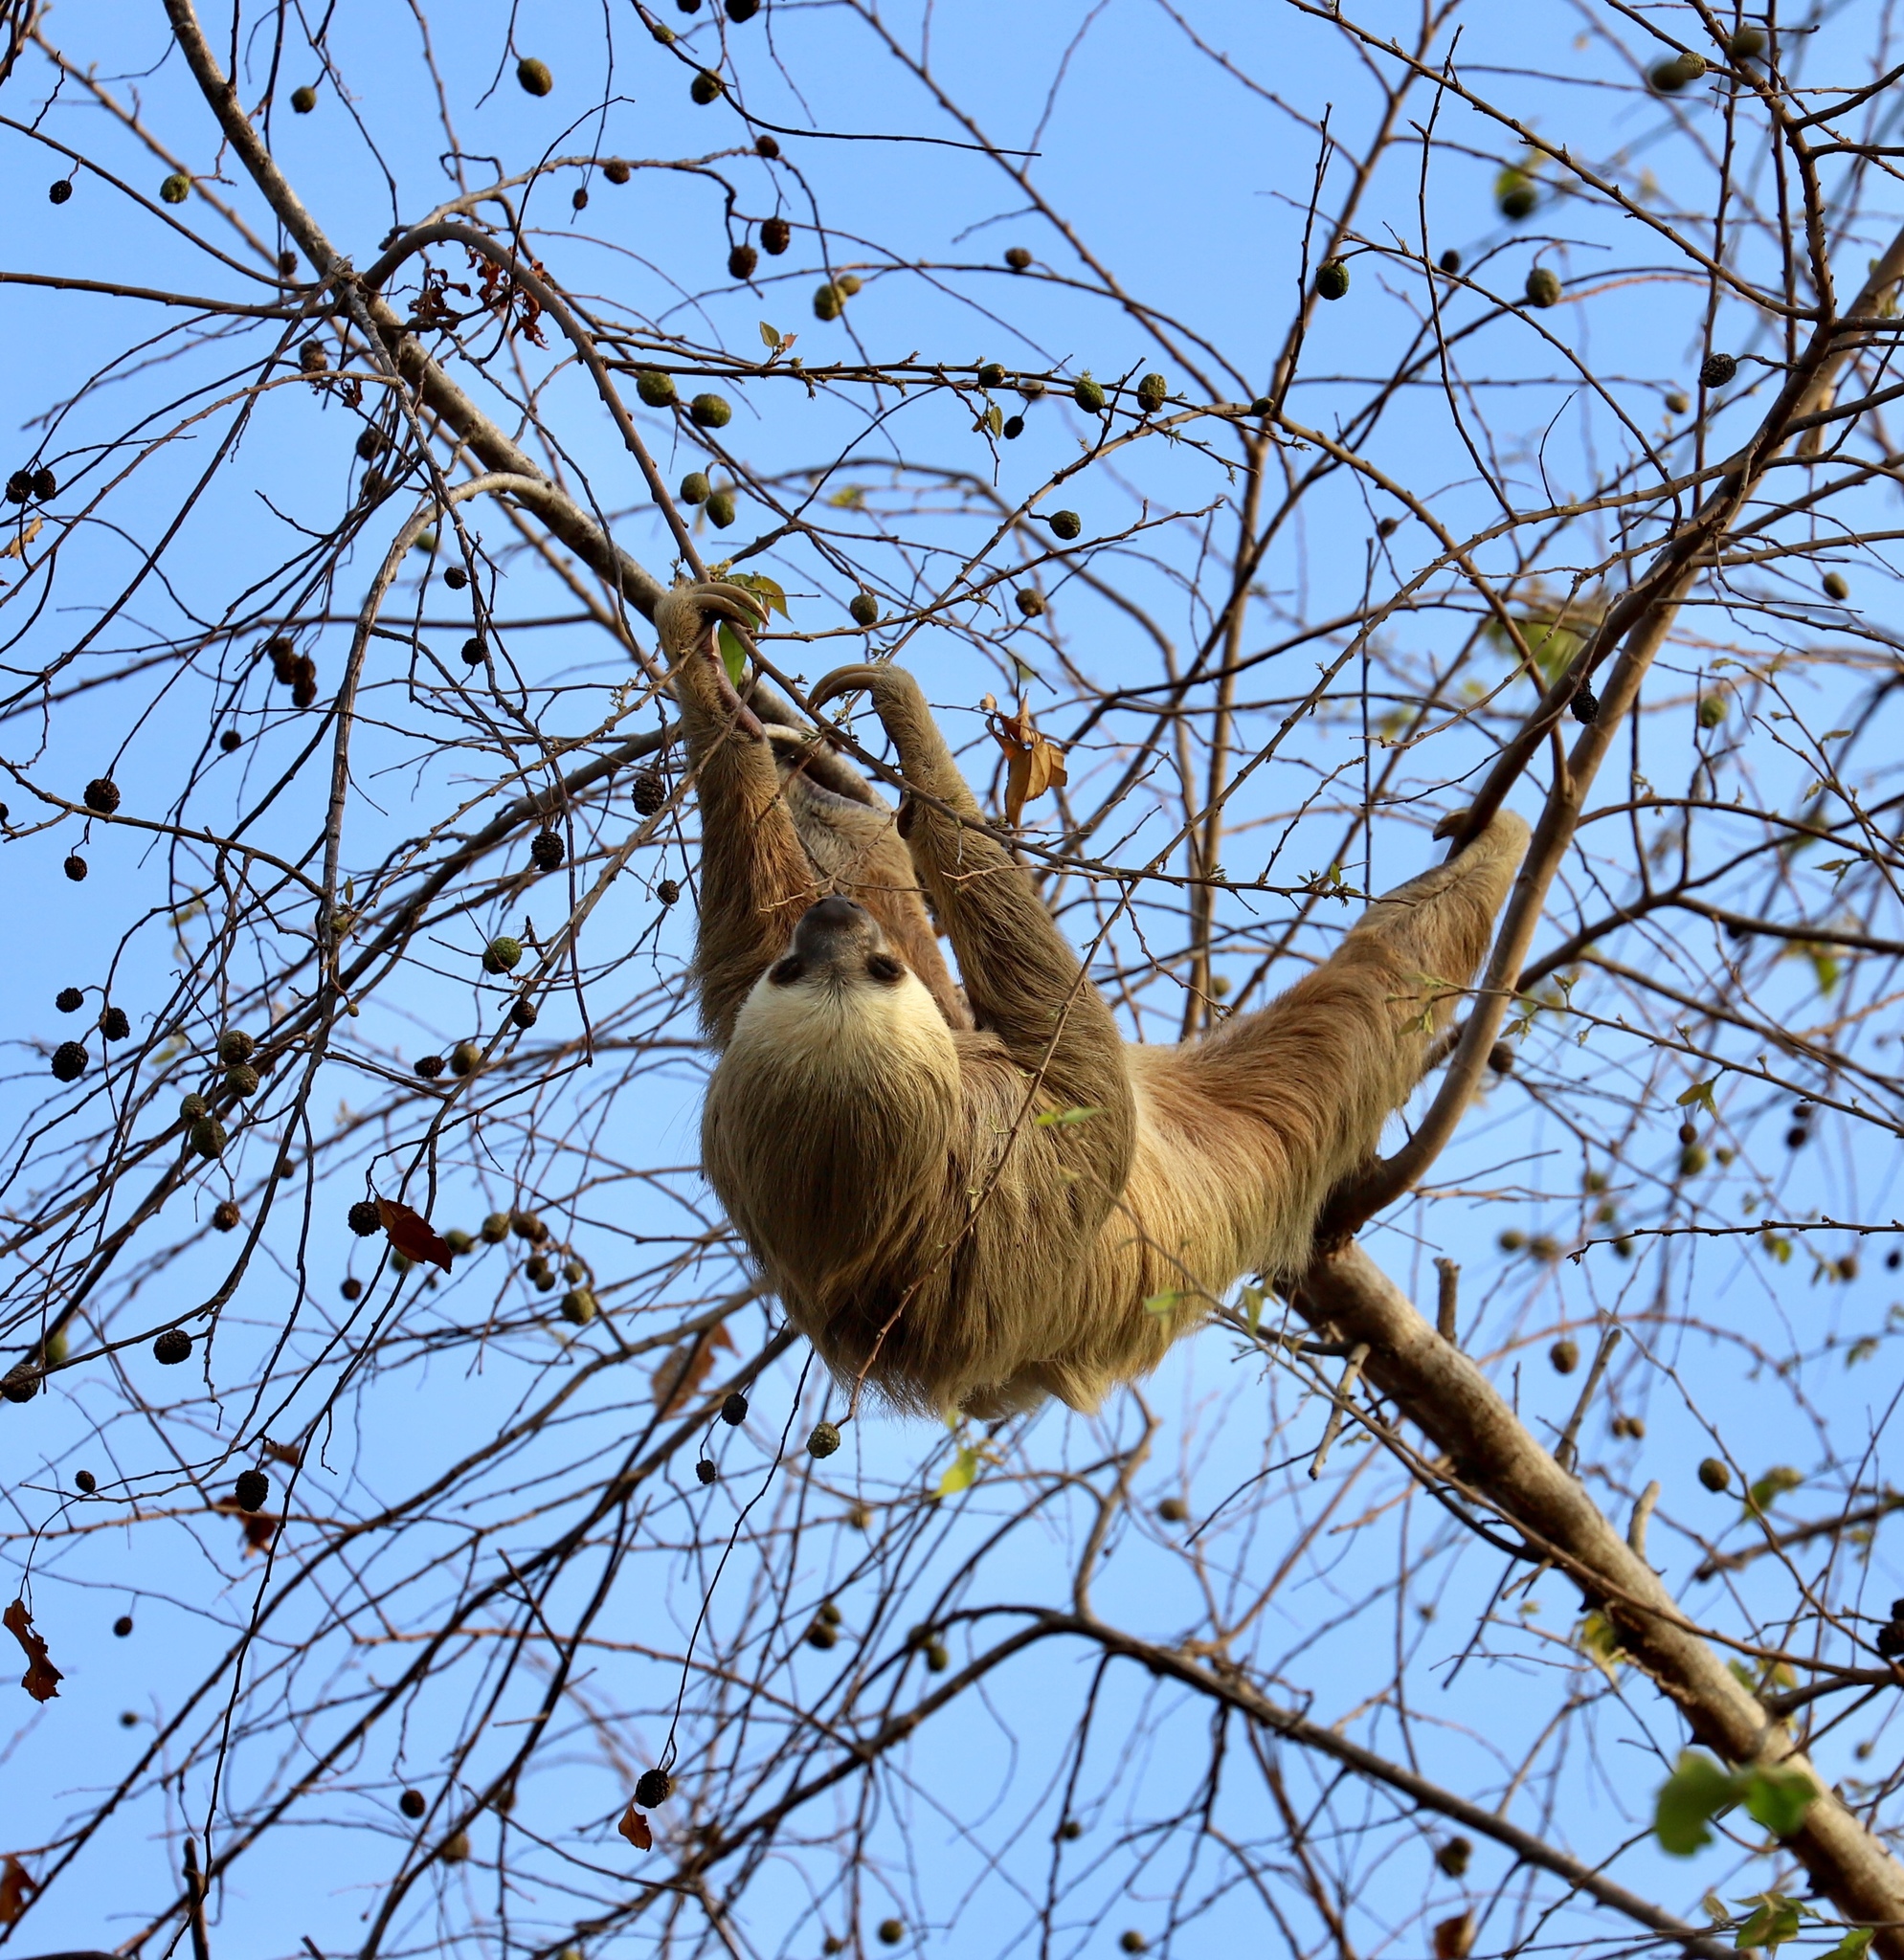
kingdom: Animalia
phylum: Chordata
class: Mammalia
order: Pilosa
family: Megalonychidae
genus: Choloepus
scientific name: Choloepus hoffmanni
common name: Hoffmann's two-toed sloth
